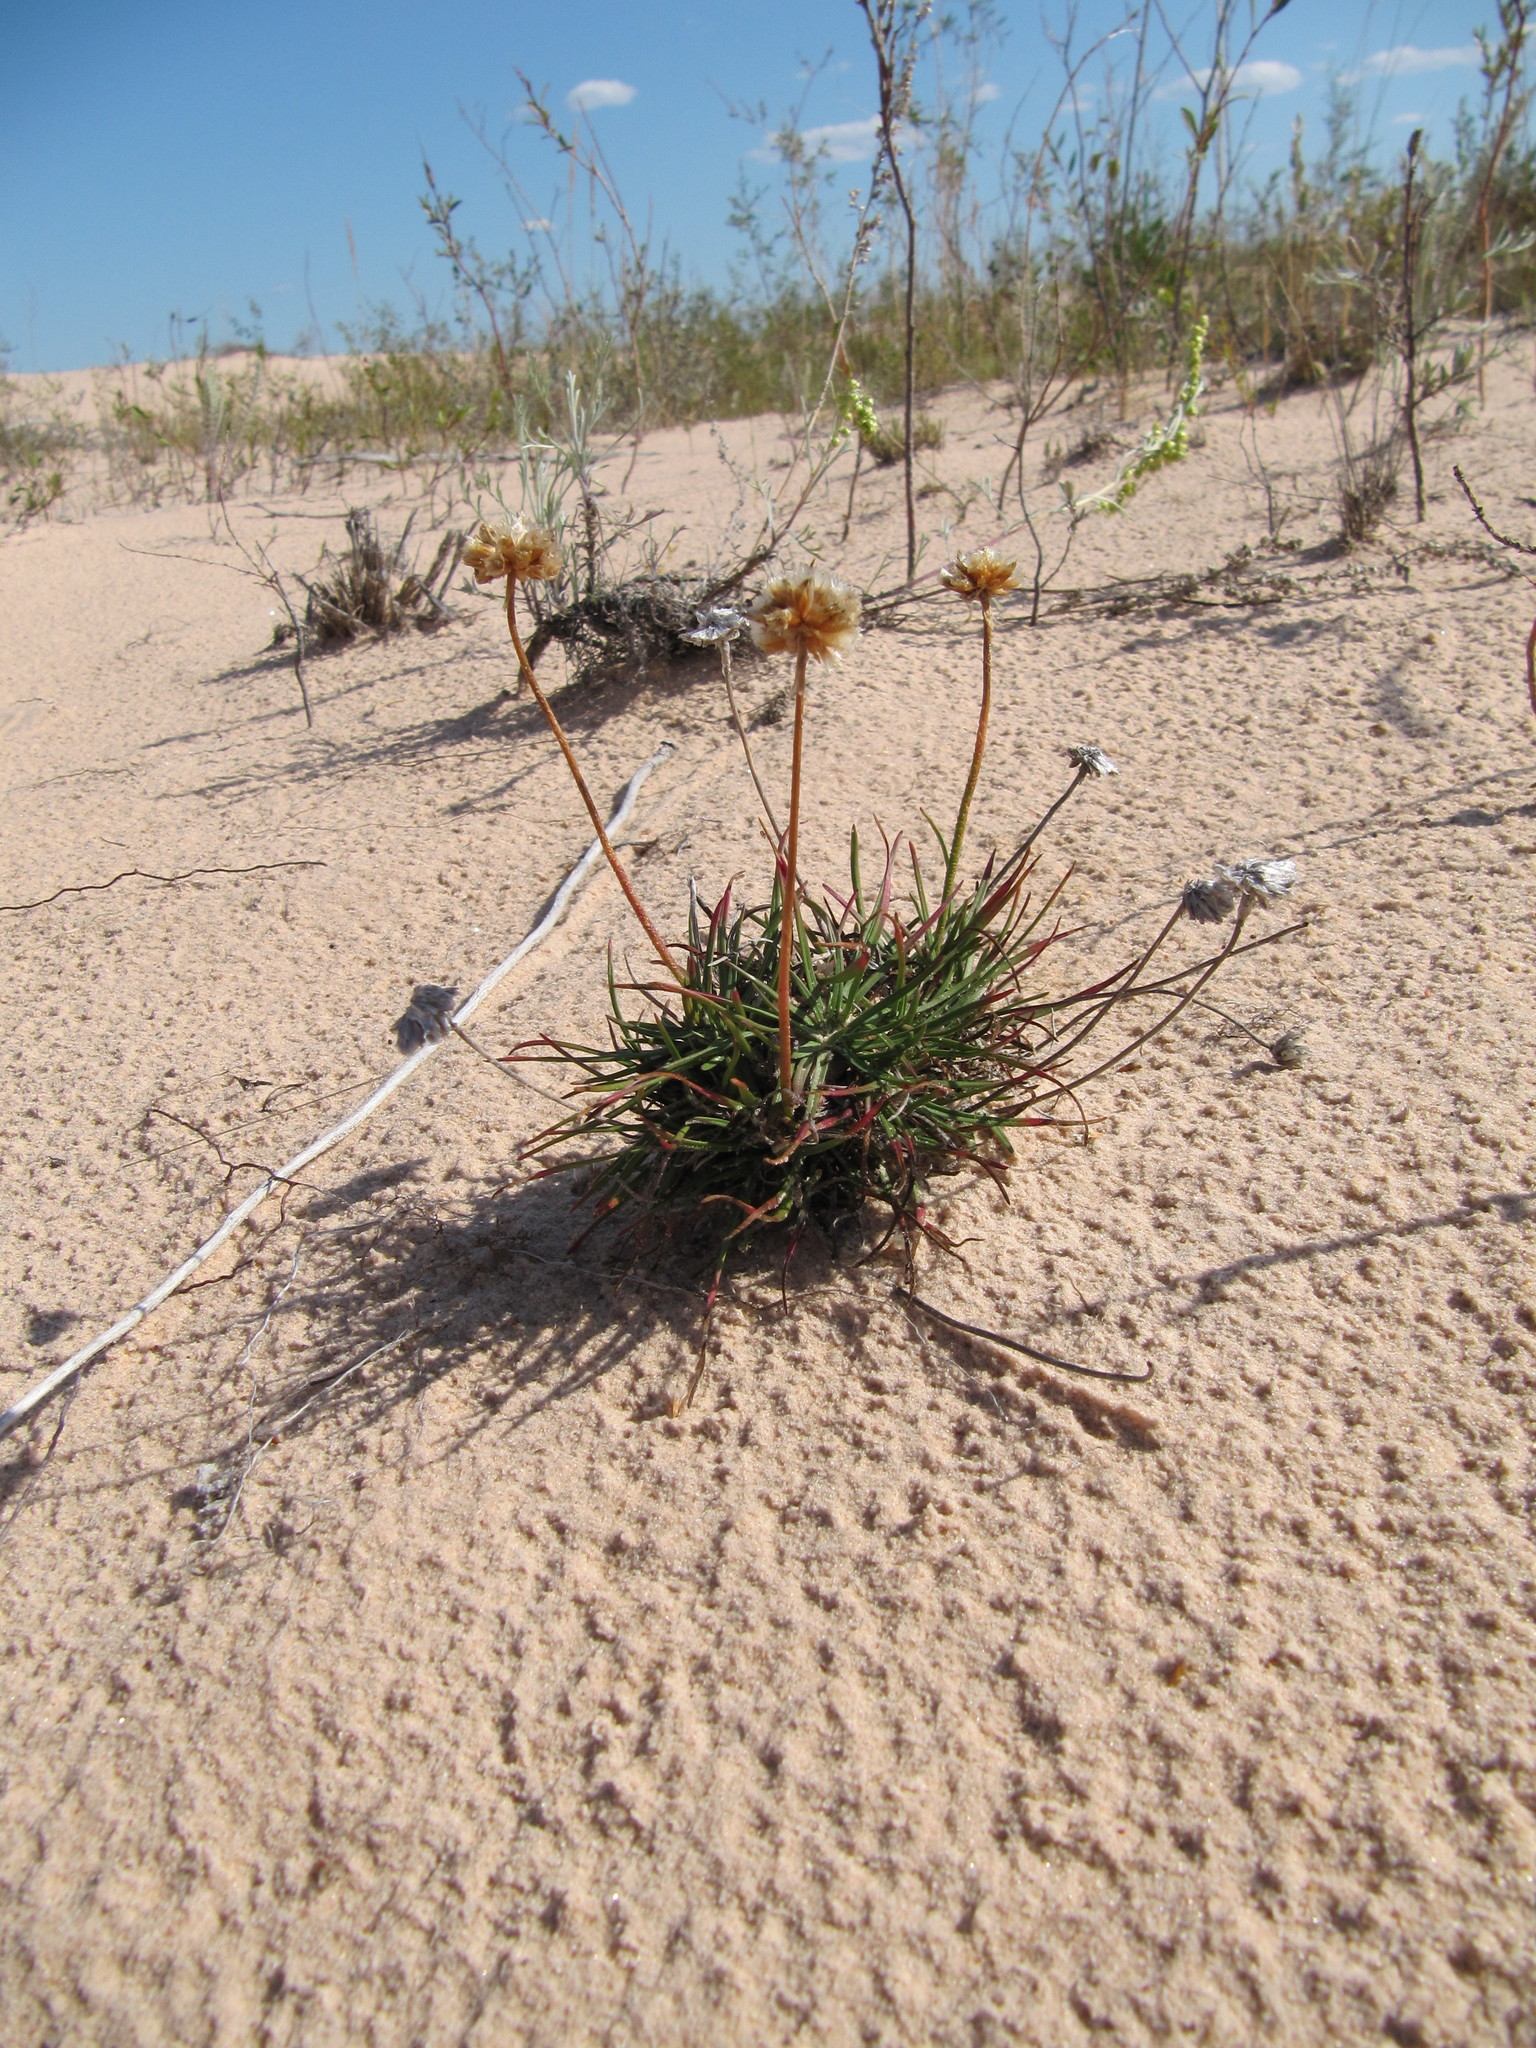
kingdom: Plantae
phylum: Tracheophyta
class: Magnoliopsida
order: Caryophyllales
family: Plumbaginaceae
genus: Armeria
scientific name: Armeria maritima
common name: Thrift
